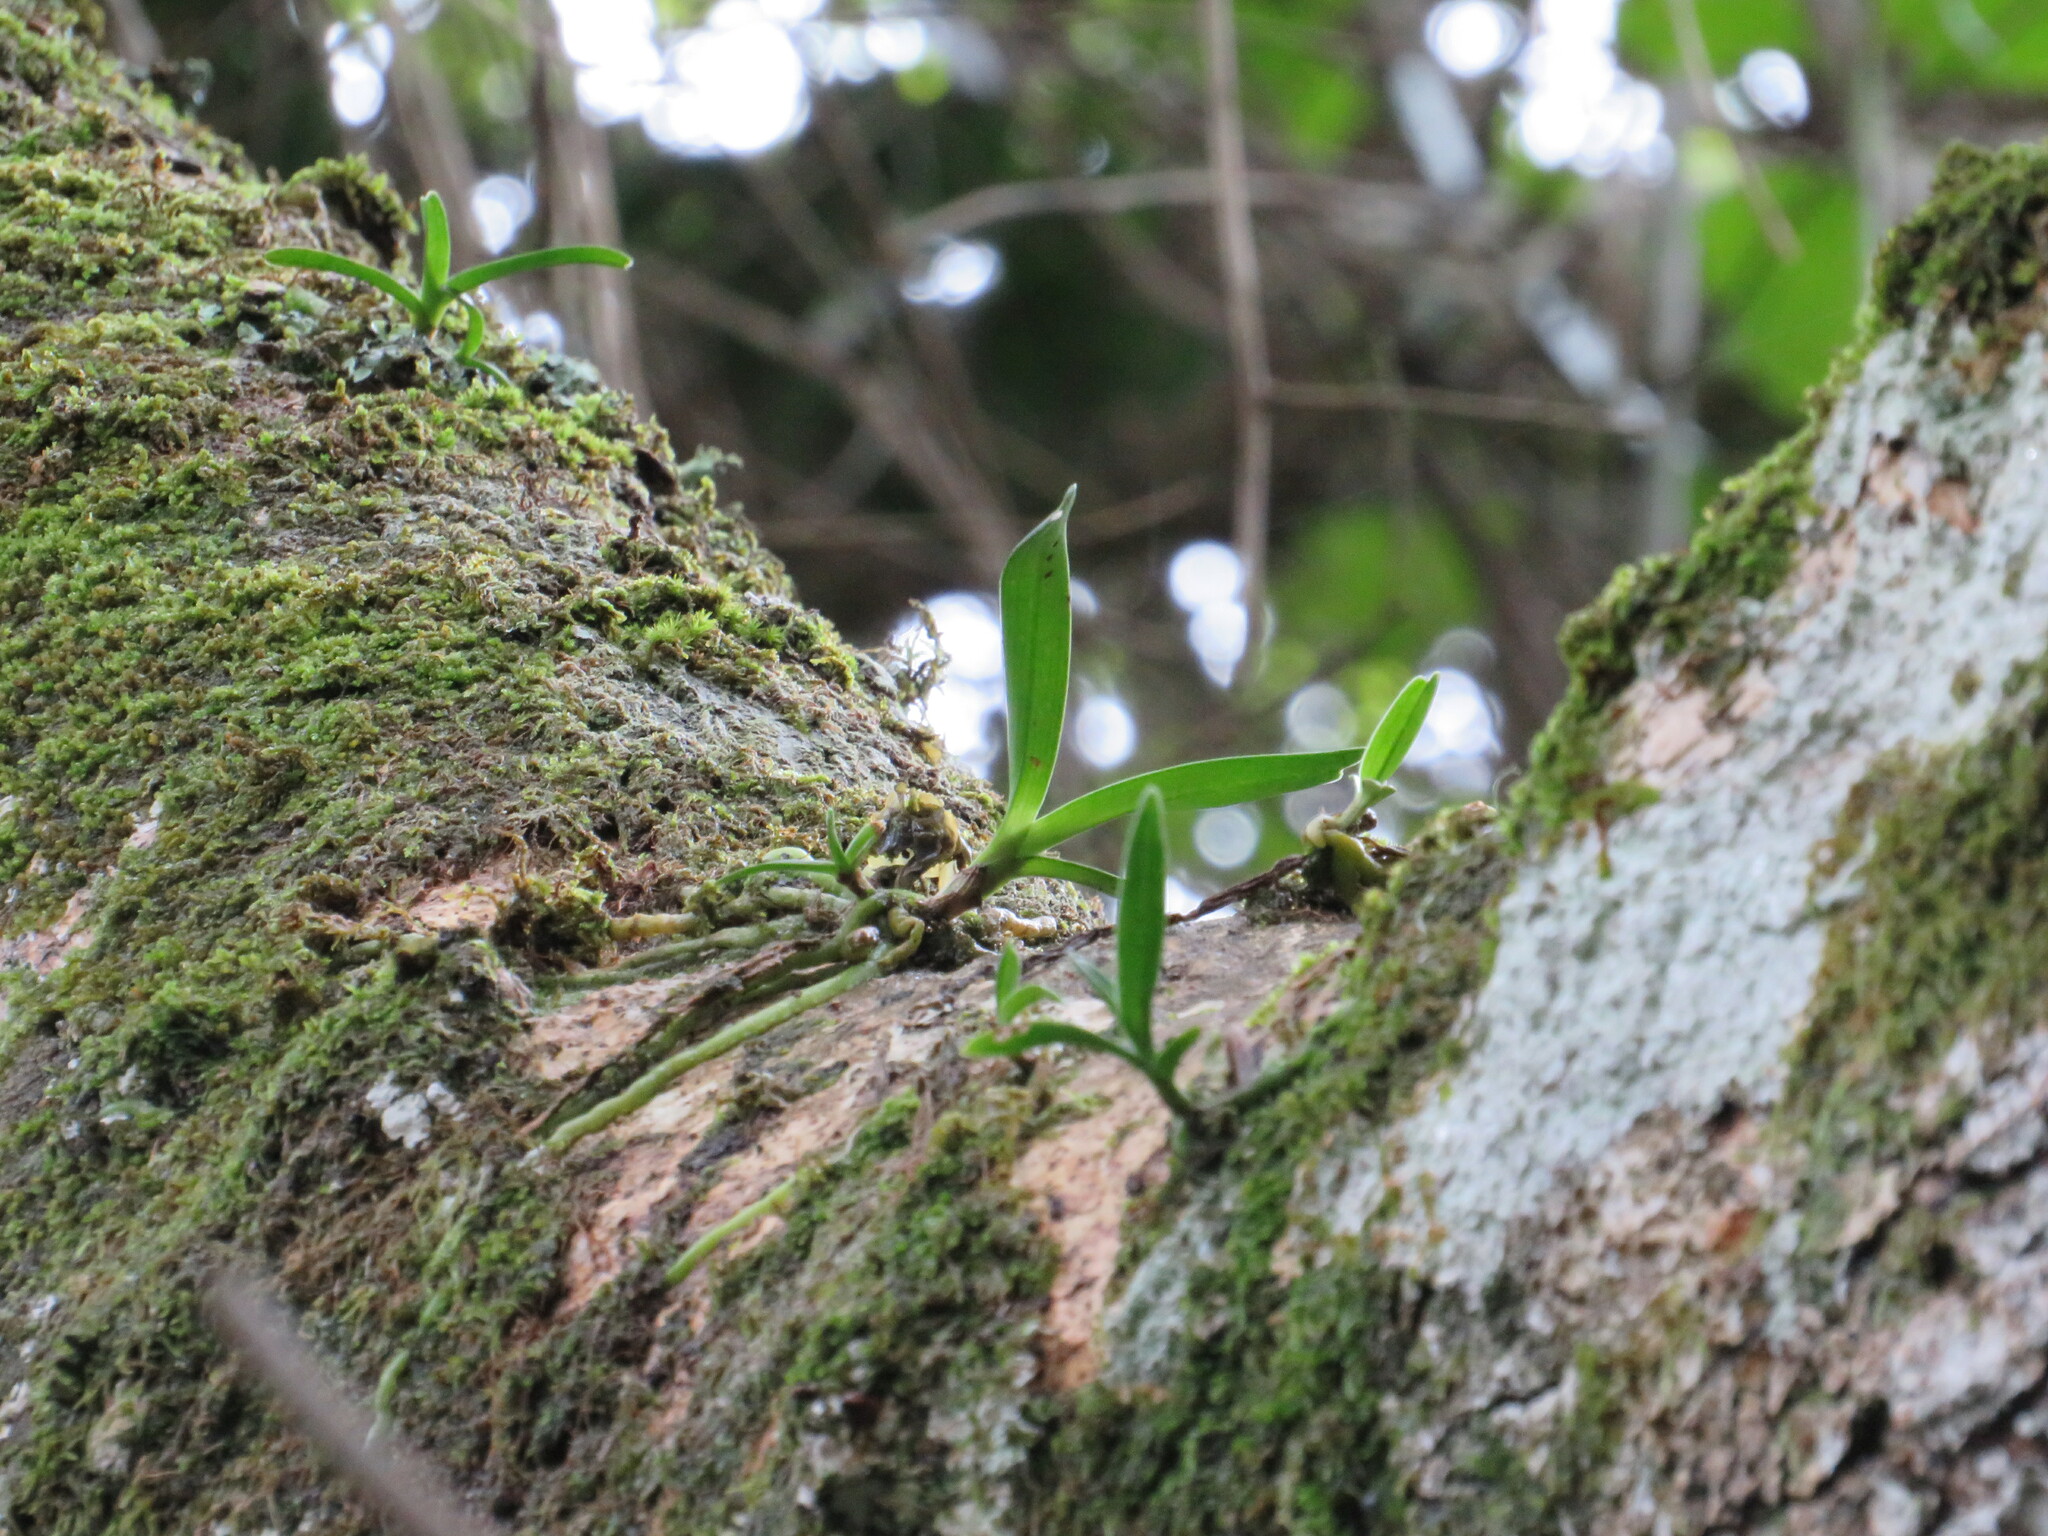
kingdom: Plantae
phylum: Tracheophyta
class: Liliopsida
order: Asparagales
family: Orchidaceae
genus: Cyrtorchis
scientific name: Cyrtorchis arcuata
